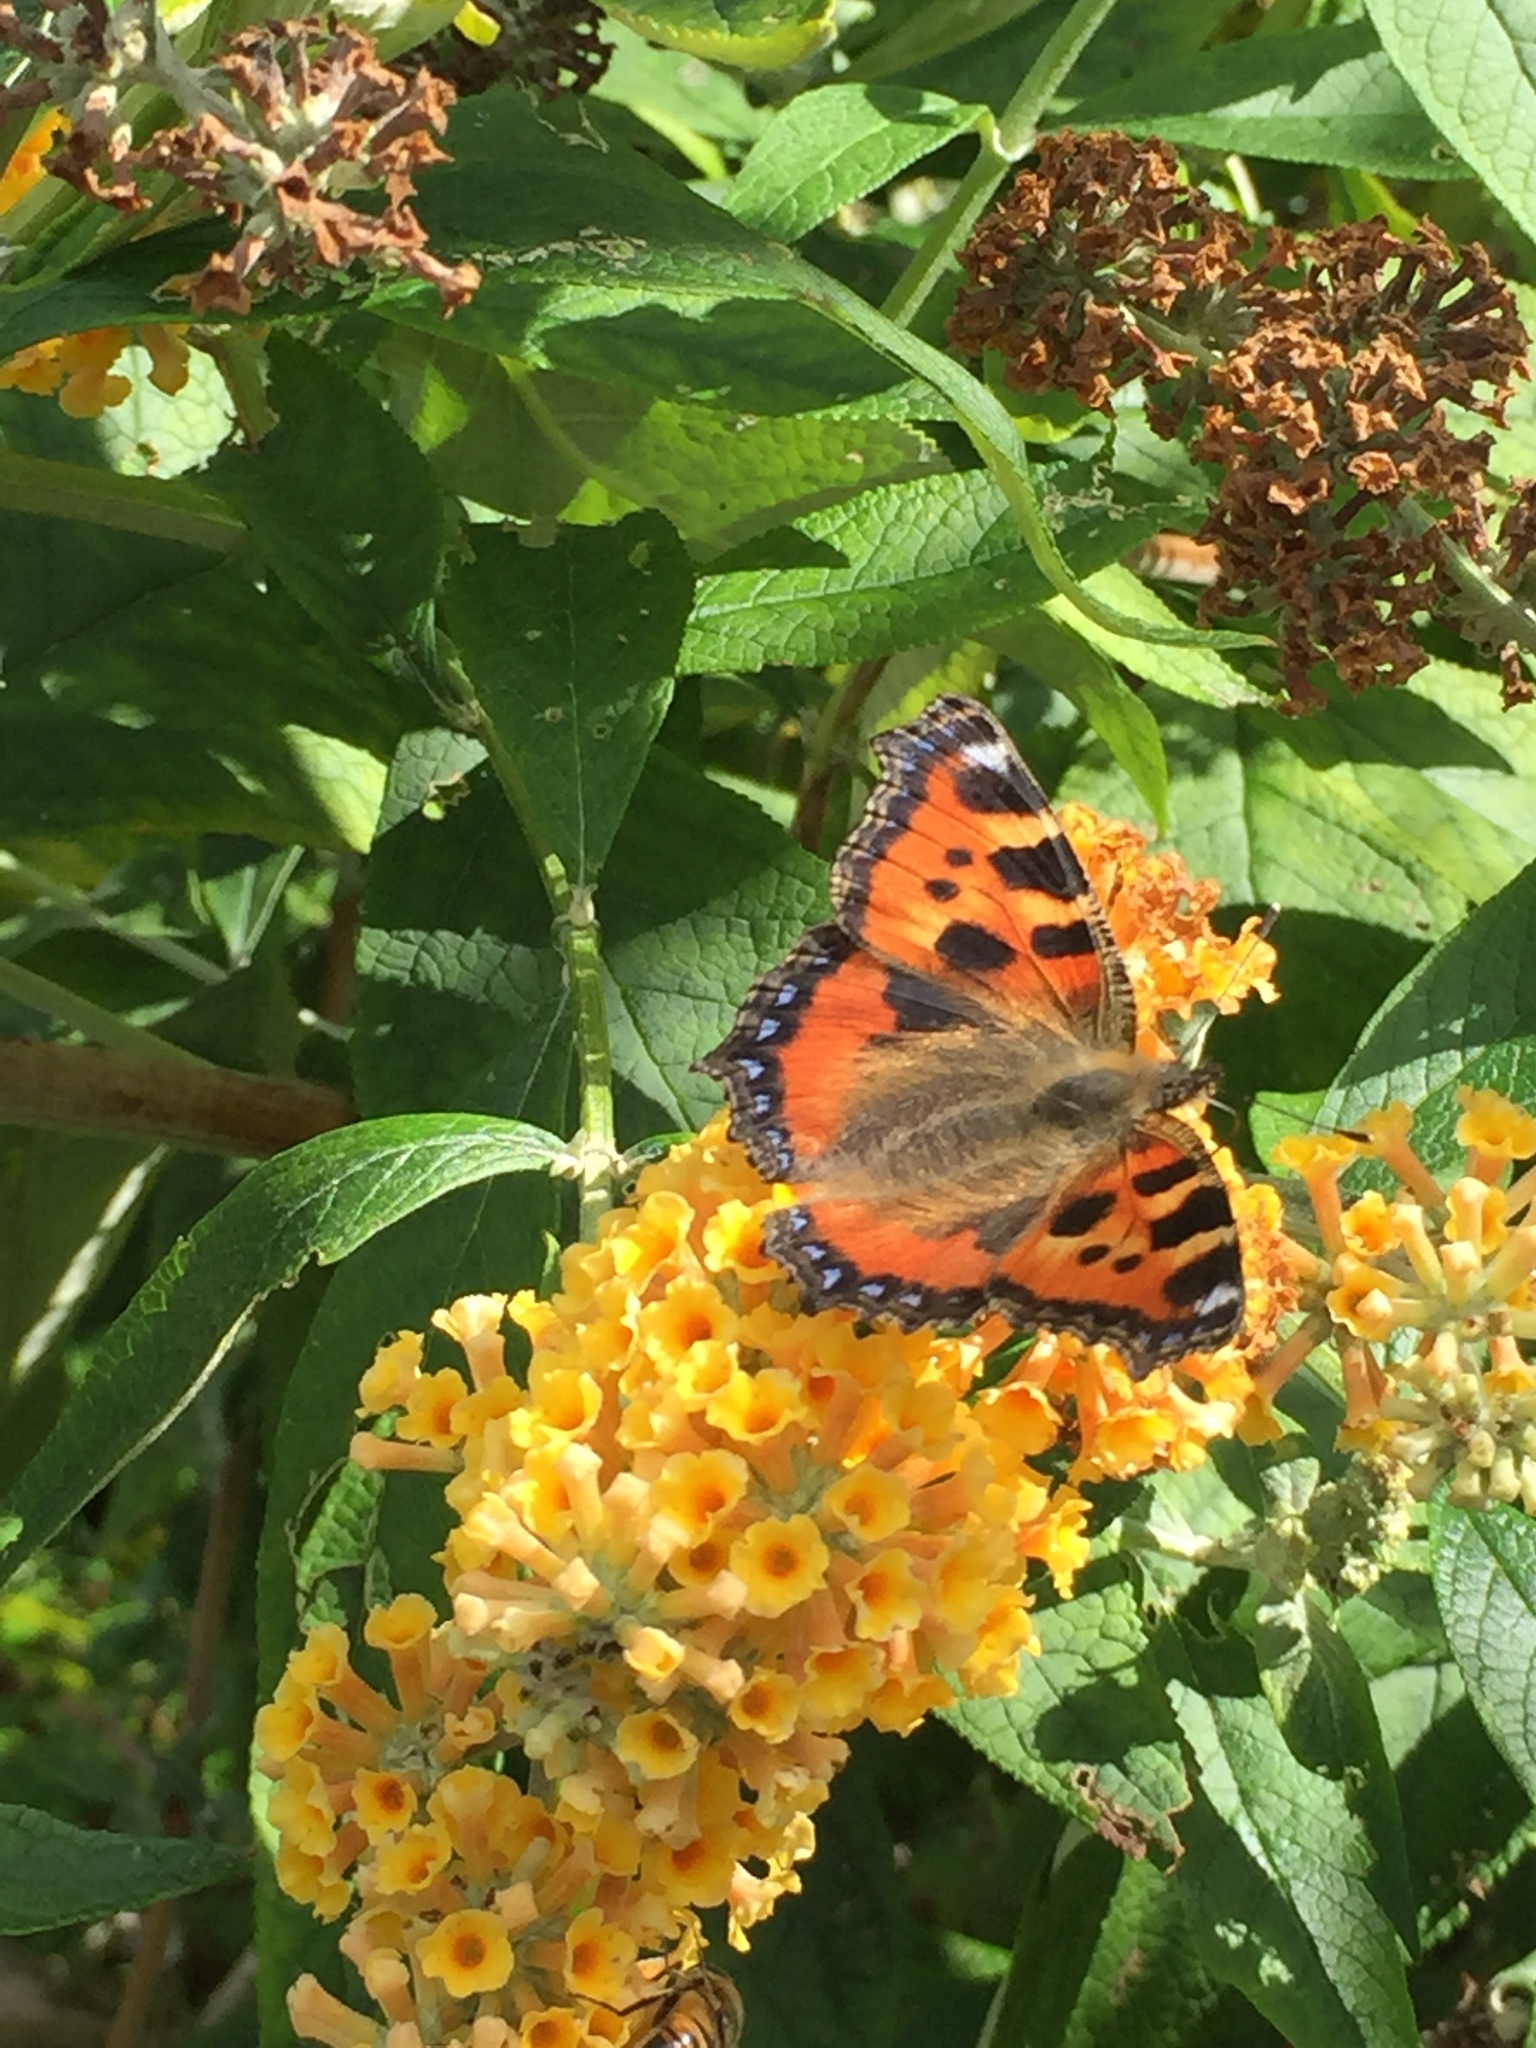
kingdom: Animalia
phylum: Arthropoda
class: Insecta
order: Lepidoptera
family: Nymphalidae
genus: Aglais
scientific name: Aglais urticae
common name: Small tortoiseshell
